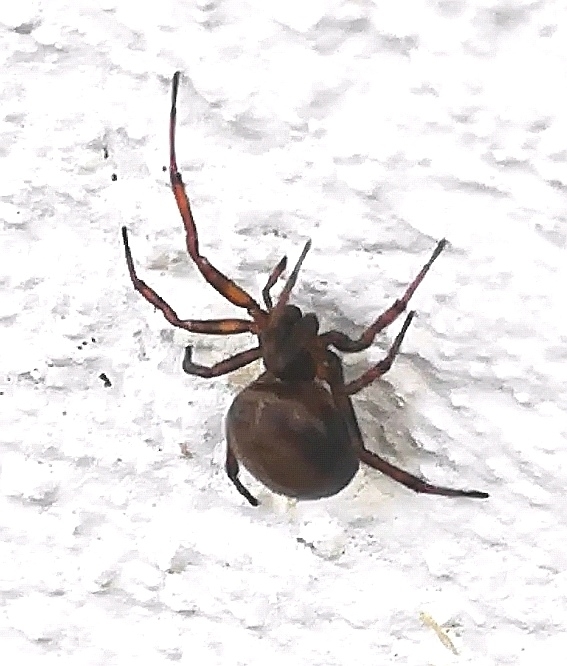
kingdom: Animalia
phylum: Arthropoda
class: Arachnida
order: Araneae
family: Theridiidae
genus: Steatoda
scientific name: Steatoda bipunctata
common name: False widow
